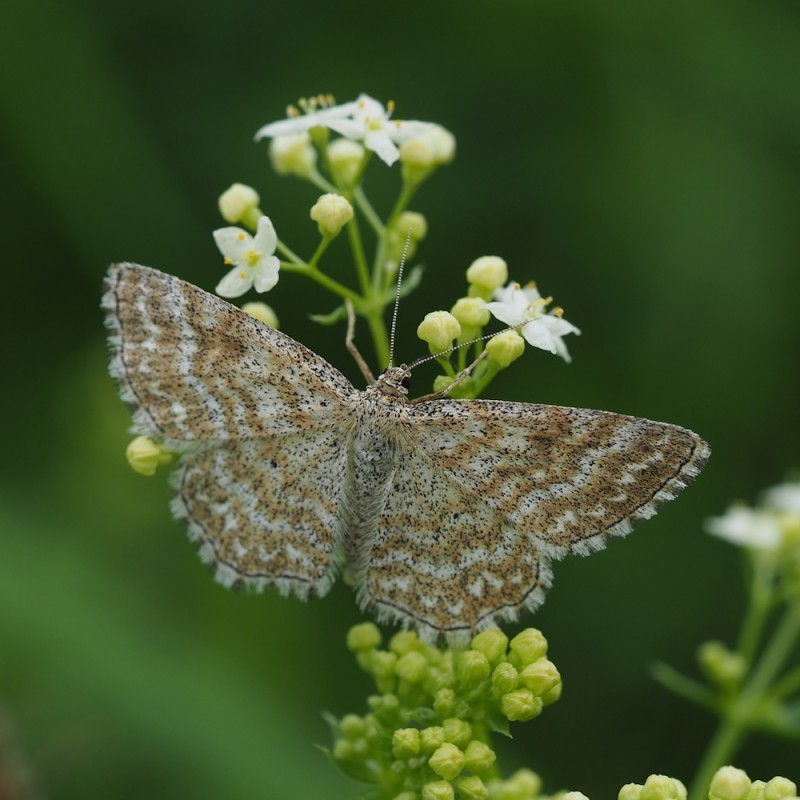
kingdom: Animalia
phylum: Arthropoda
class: Insecta
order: Lepidoptera
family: Geometridae
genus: Scopula
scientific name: Scopula immorata
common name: Lewes wave
